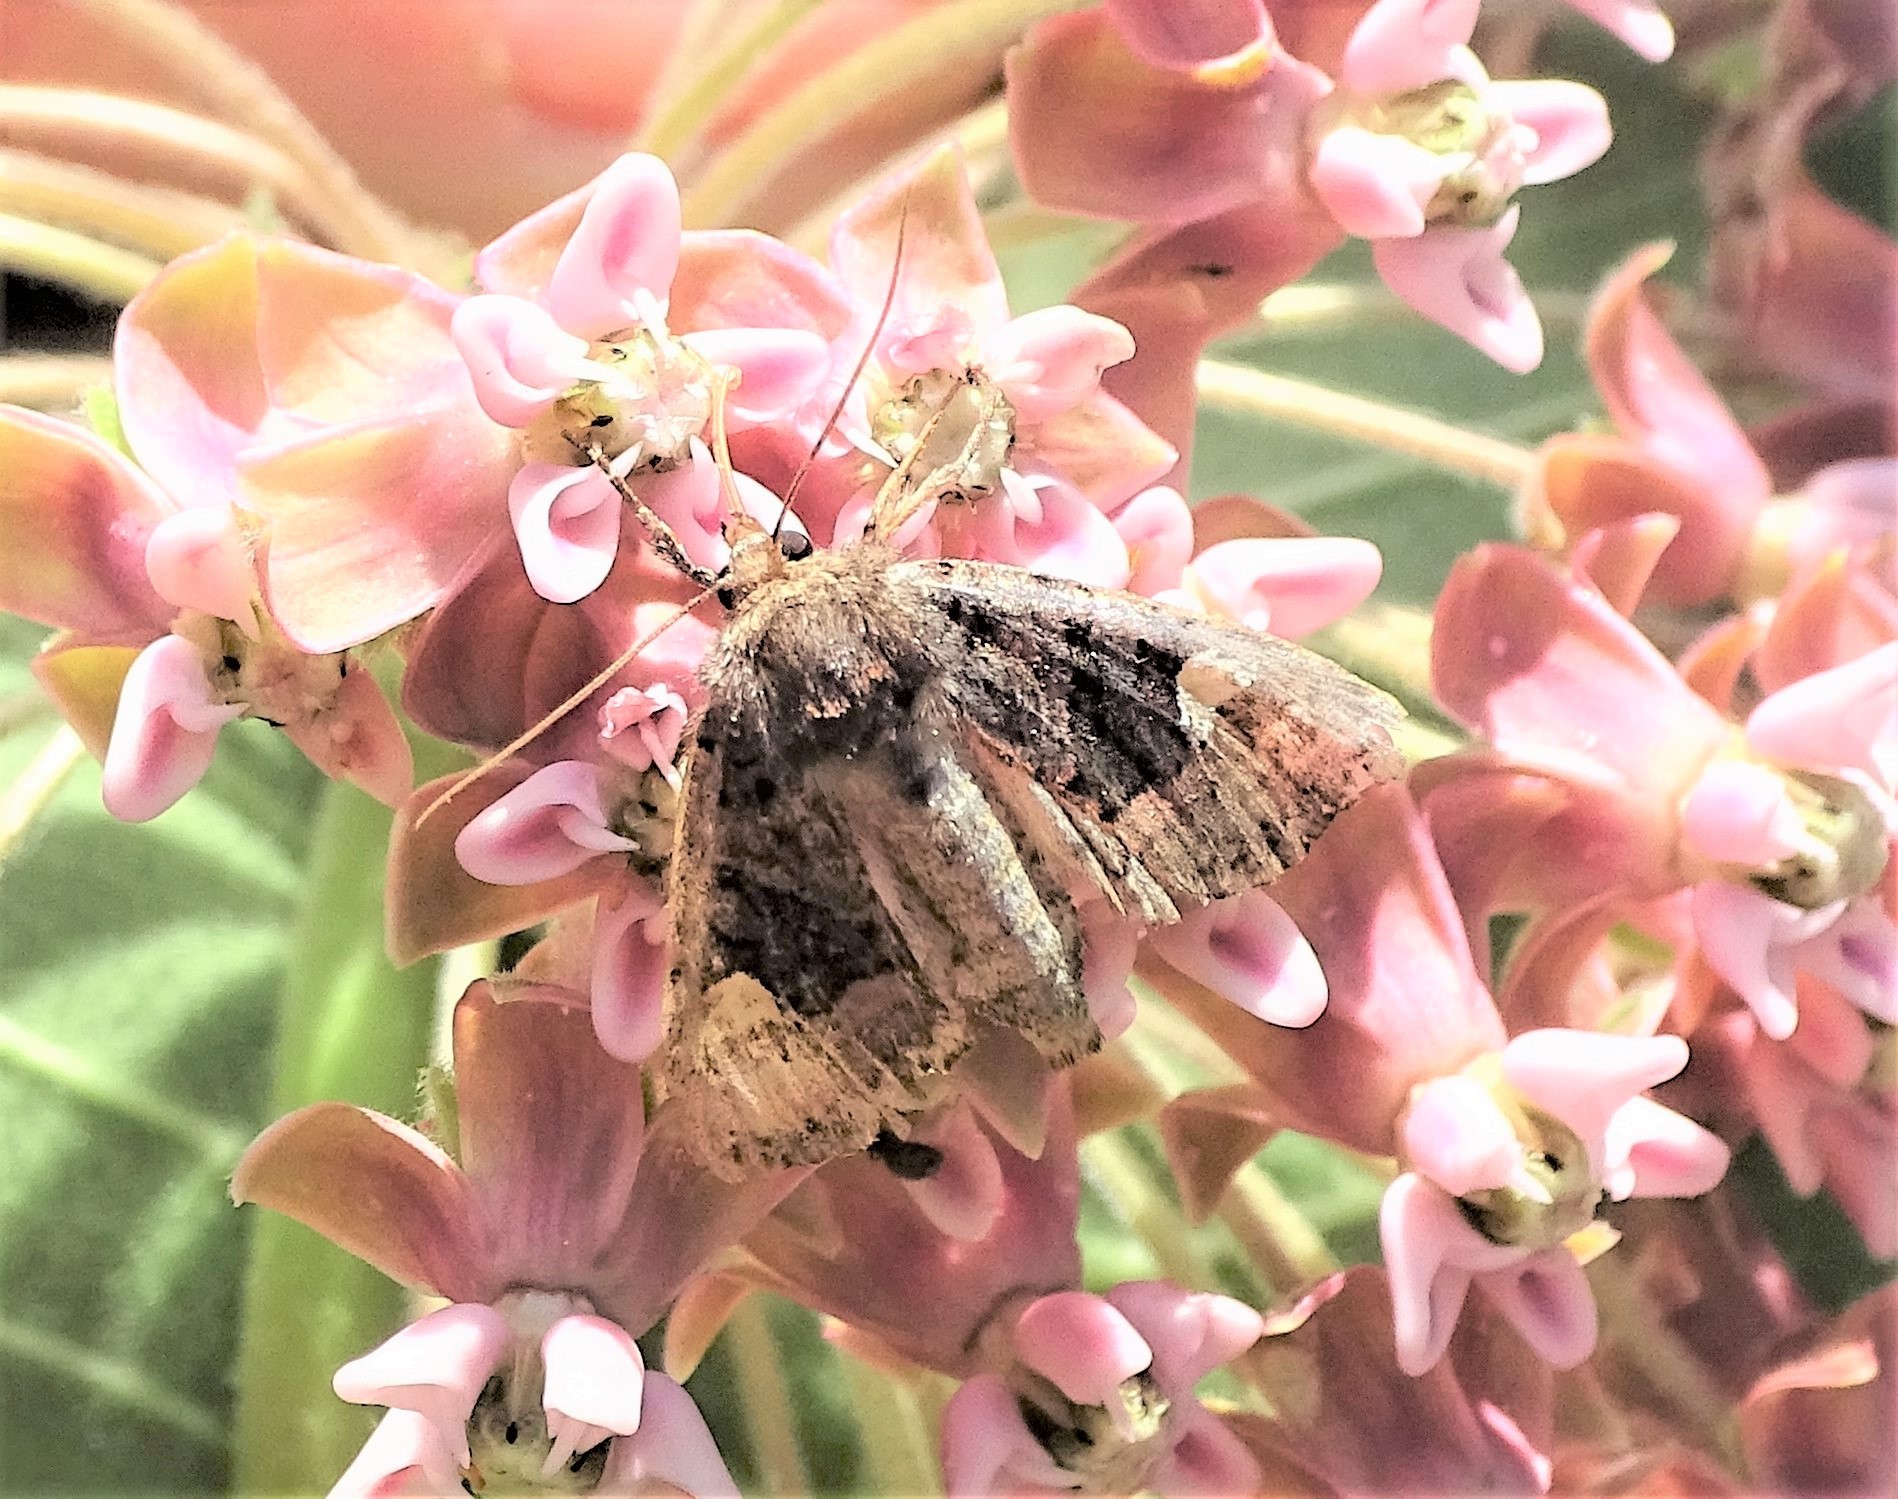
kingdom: Animalia
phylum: Arthropoda
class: Insecta
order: Lepidoptera
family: Noctuidae
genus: Euplexia
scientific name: Euplexia benesimilis
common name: American angle shades
